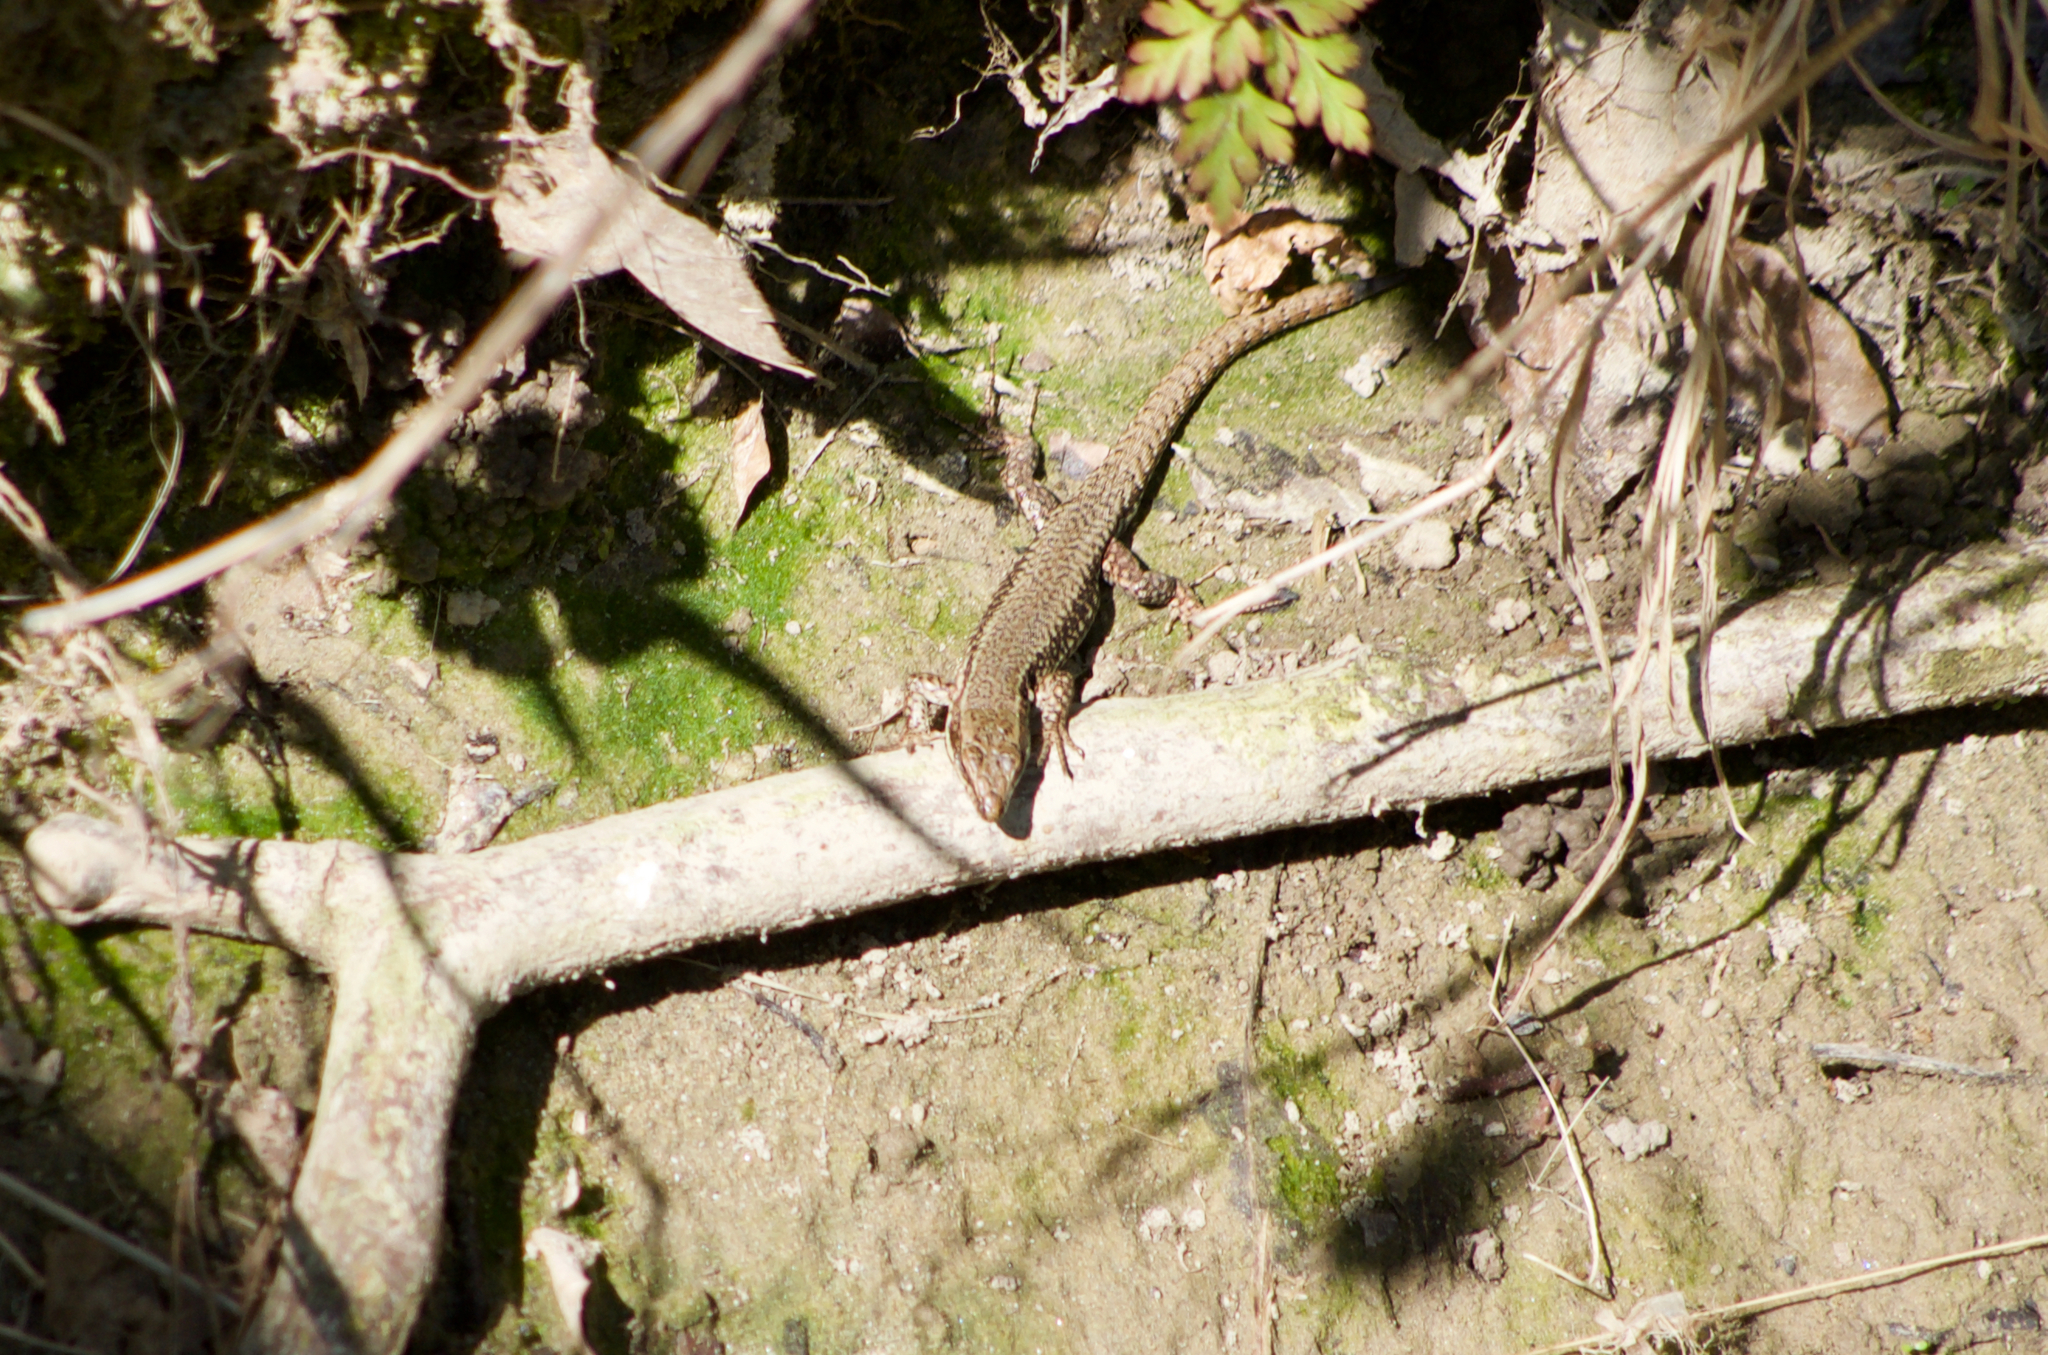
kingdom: Animalia
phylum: Chordata
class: Squamata
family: Lacertidae
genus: Podarcis
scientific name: Podarcis muralis
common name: Common wall lizard
